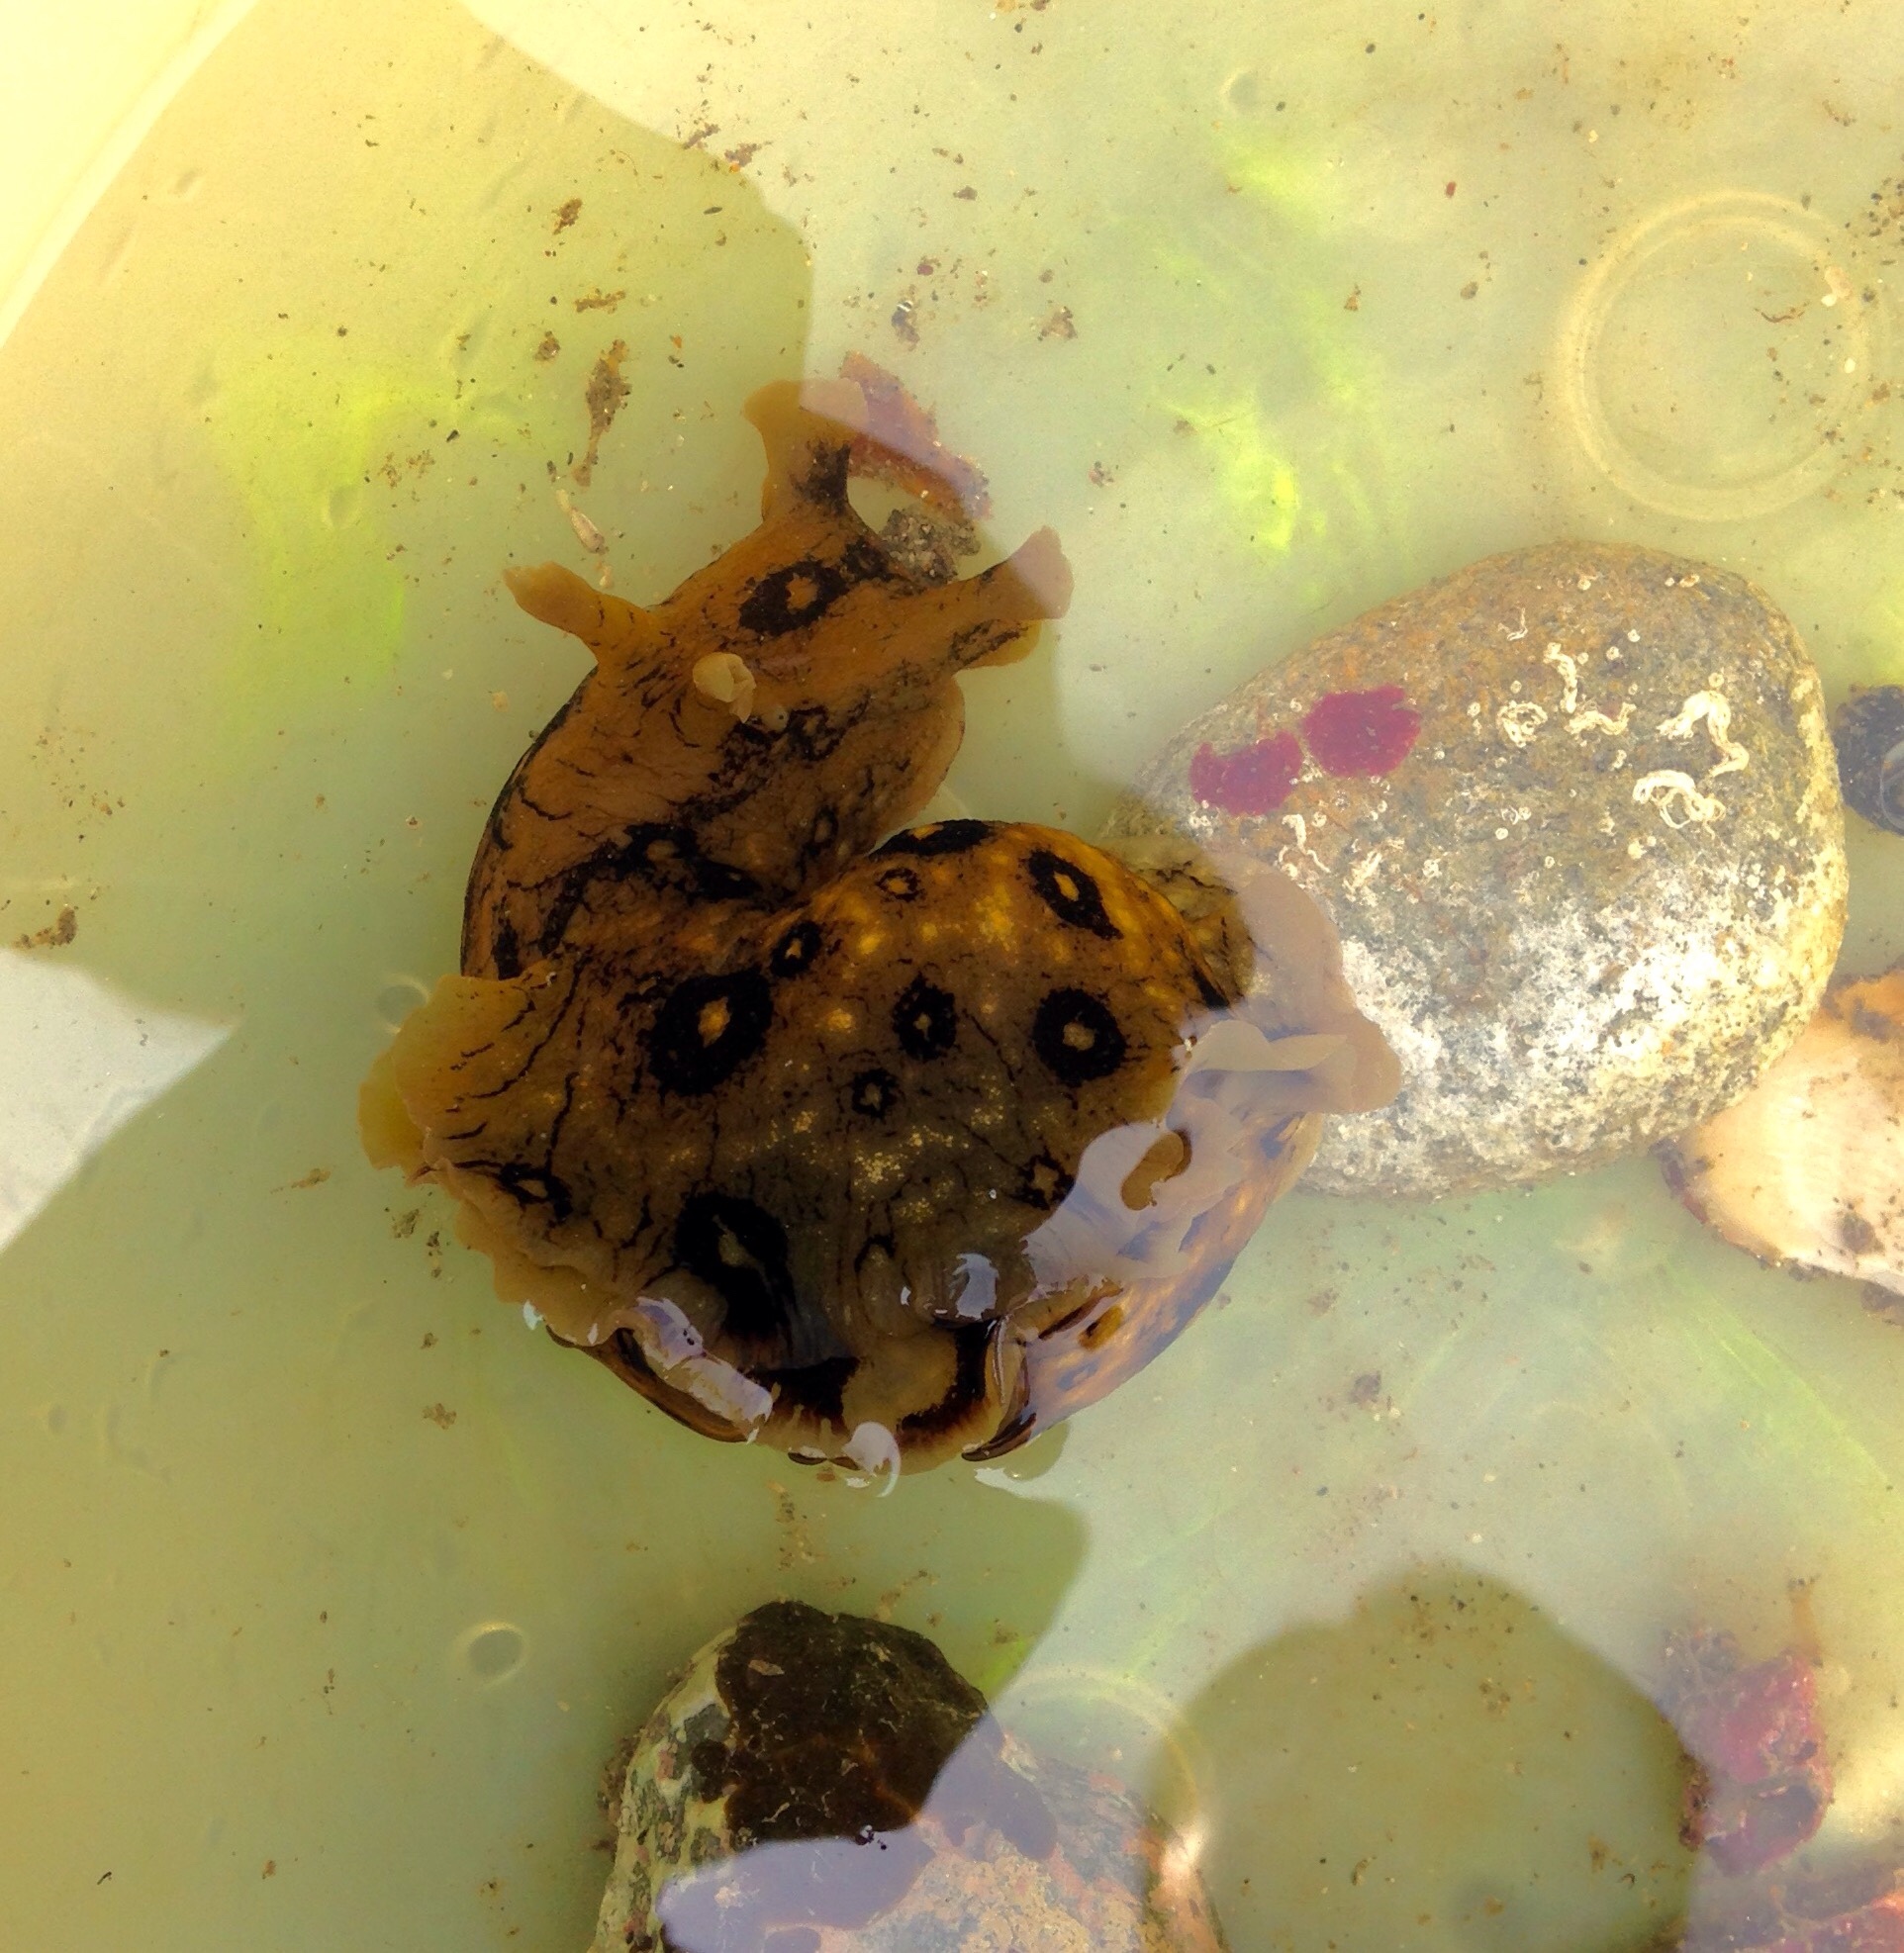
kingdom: Animalia
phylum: Mollusca
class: Gastropoda
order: Aplysiida
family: Aplysiidae
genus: Aplysia
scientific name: Aplysia dactylomela
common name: Large-spotted sea hare
